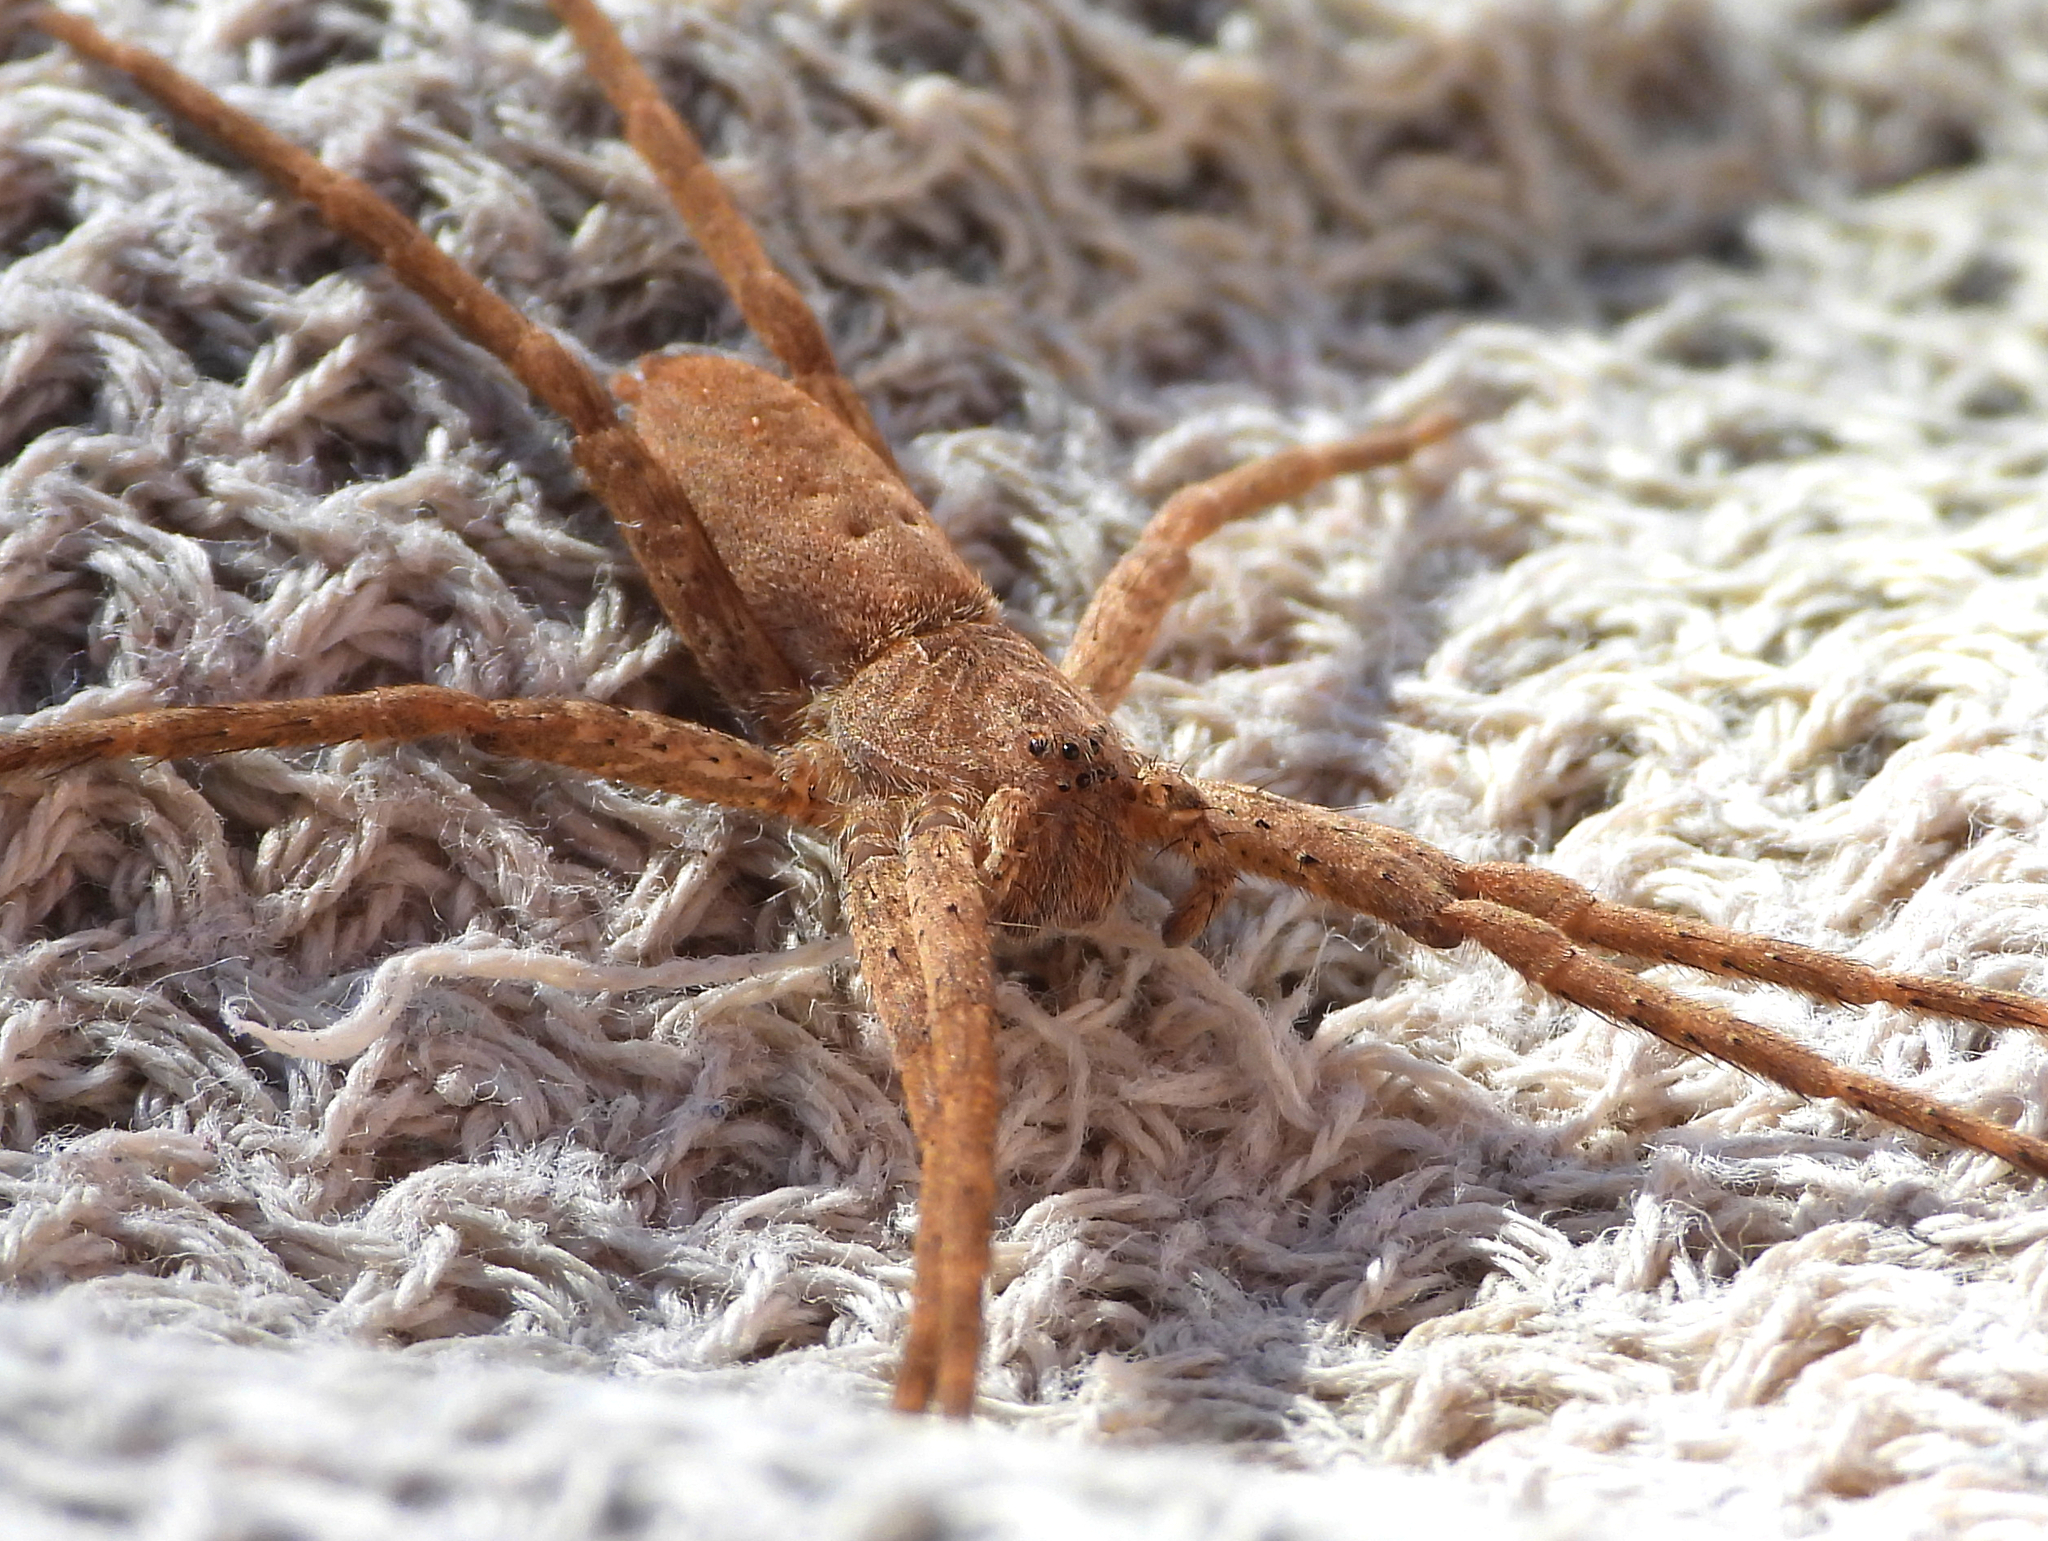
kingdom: Animalia
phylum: Arthropoda
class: Arachnida
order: Araneae
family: Pisauridae
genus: Pisaurina
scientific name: Pisaurina mira
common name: American nursery web spider
